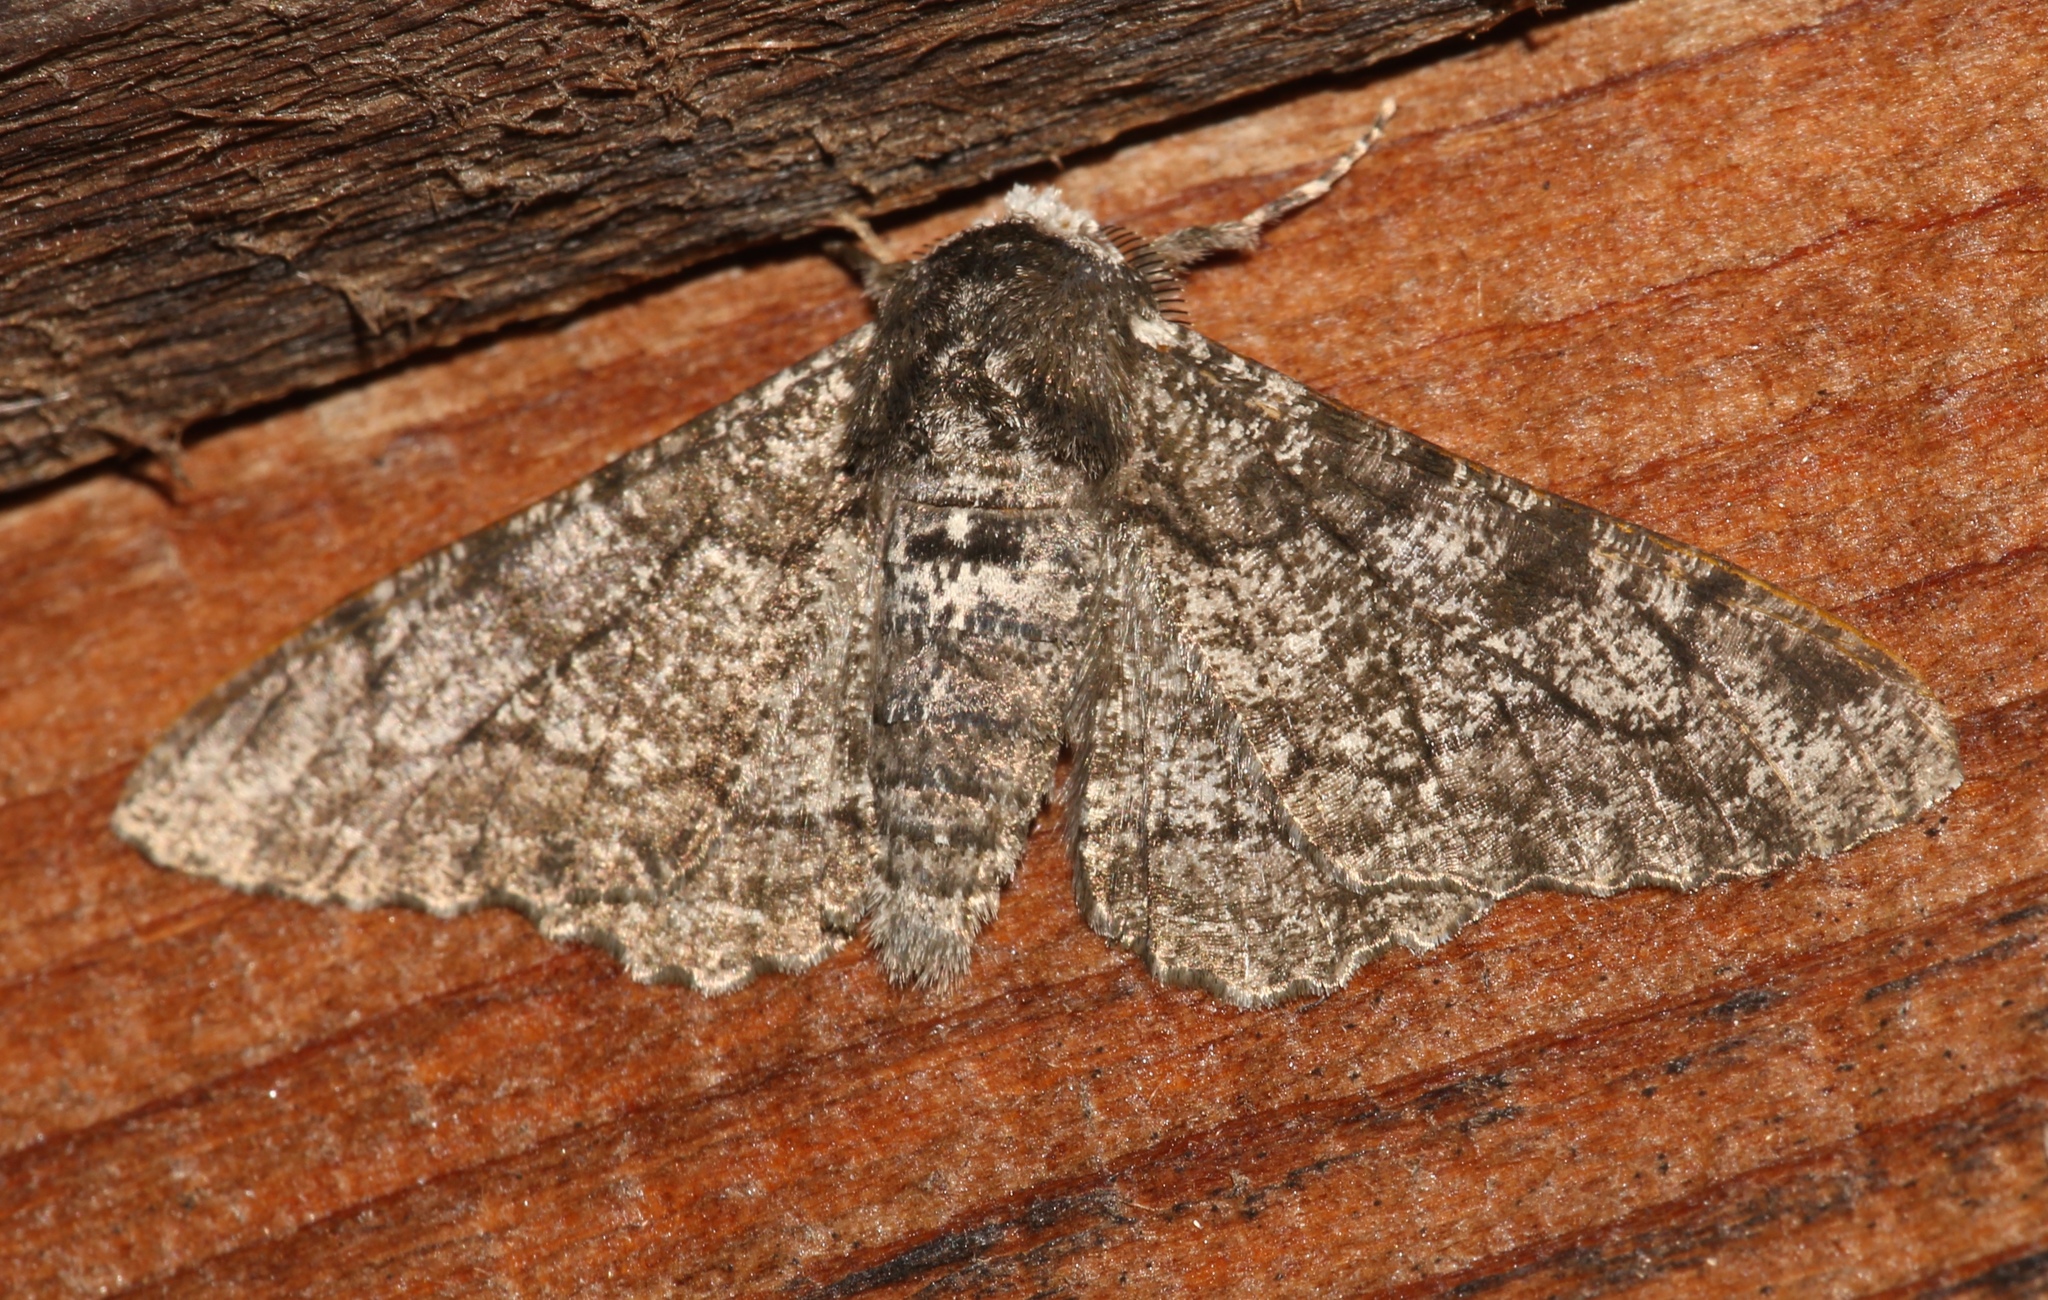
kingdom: Animalia
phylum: Arthropoda
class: Insecta
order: Lepidoptera
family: Geometridae
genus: Biston
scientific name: Biston betularia
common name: Peppered moth
